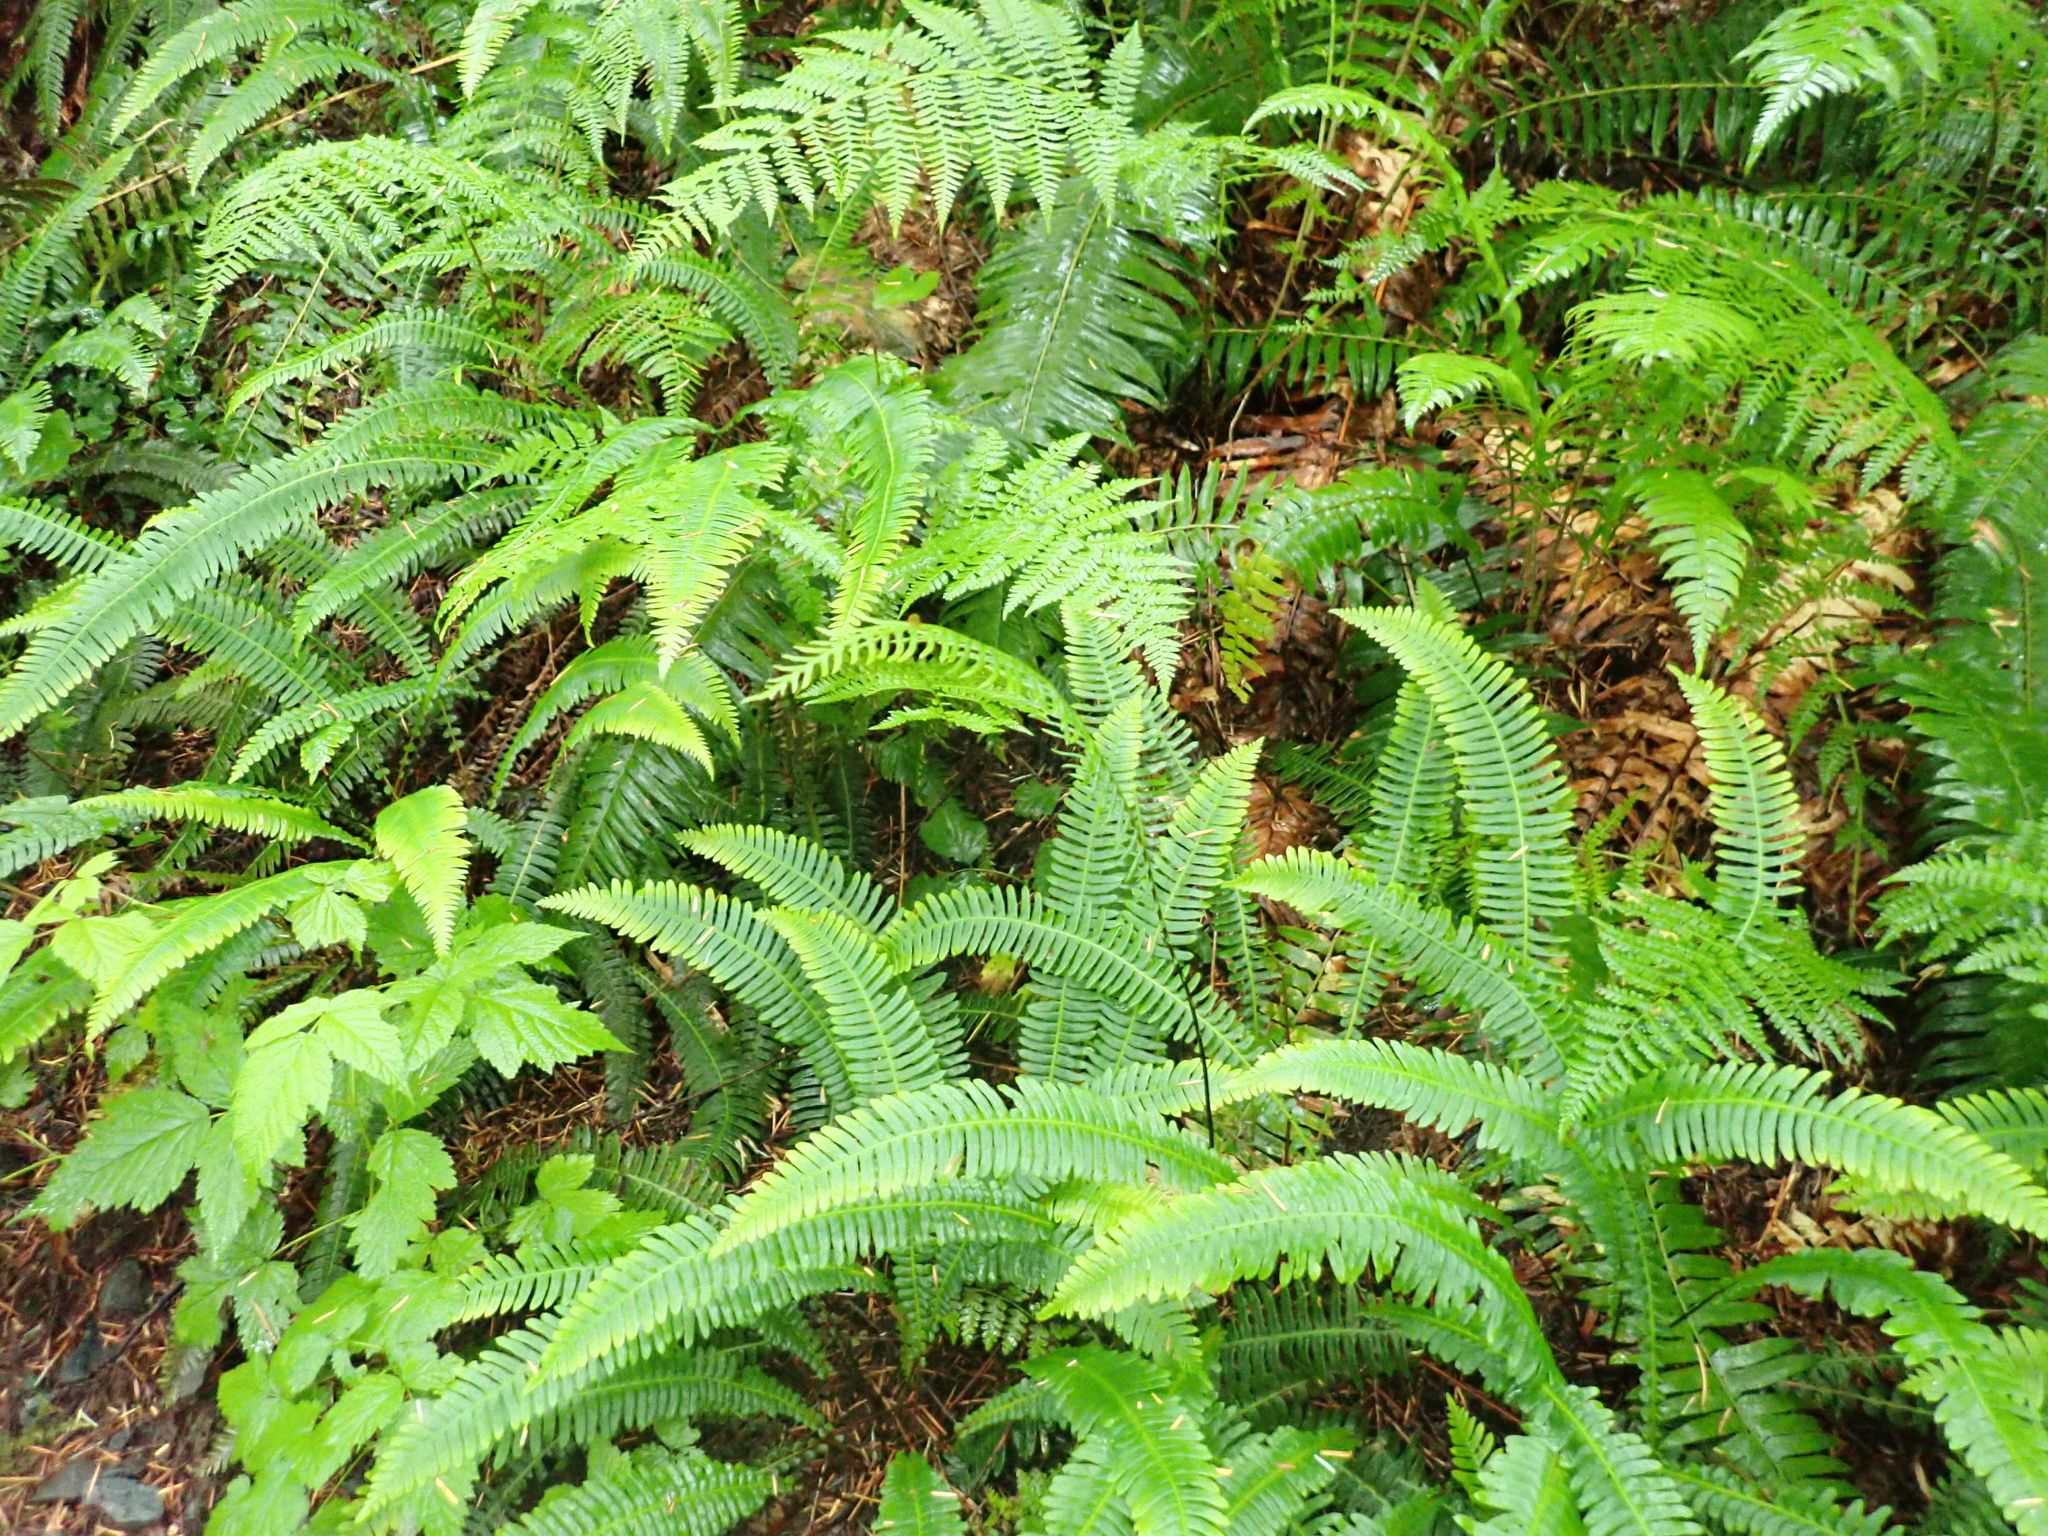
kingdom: Plantae
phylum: Tracheophyta
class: Polypodiopsida
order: Polypodiales
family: Blechnaceae
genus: Struthiopteris
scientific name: Struthiopteris spicant
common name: Deer fern
